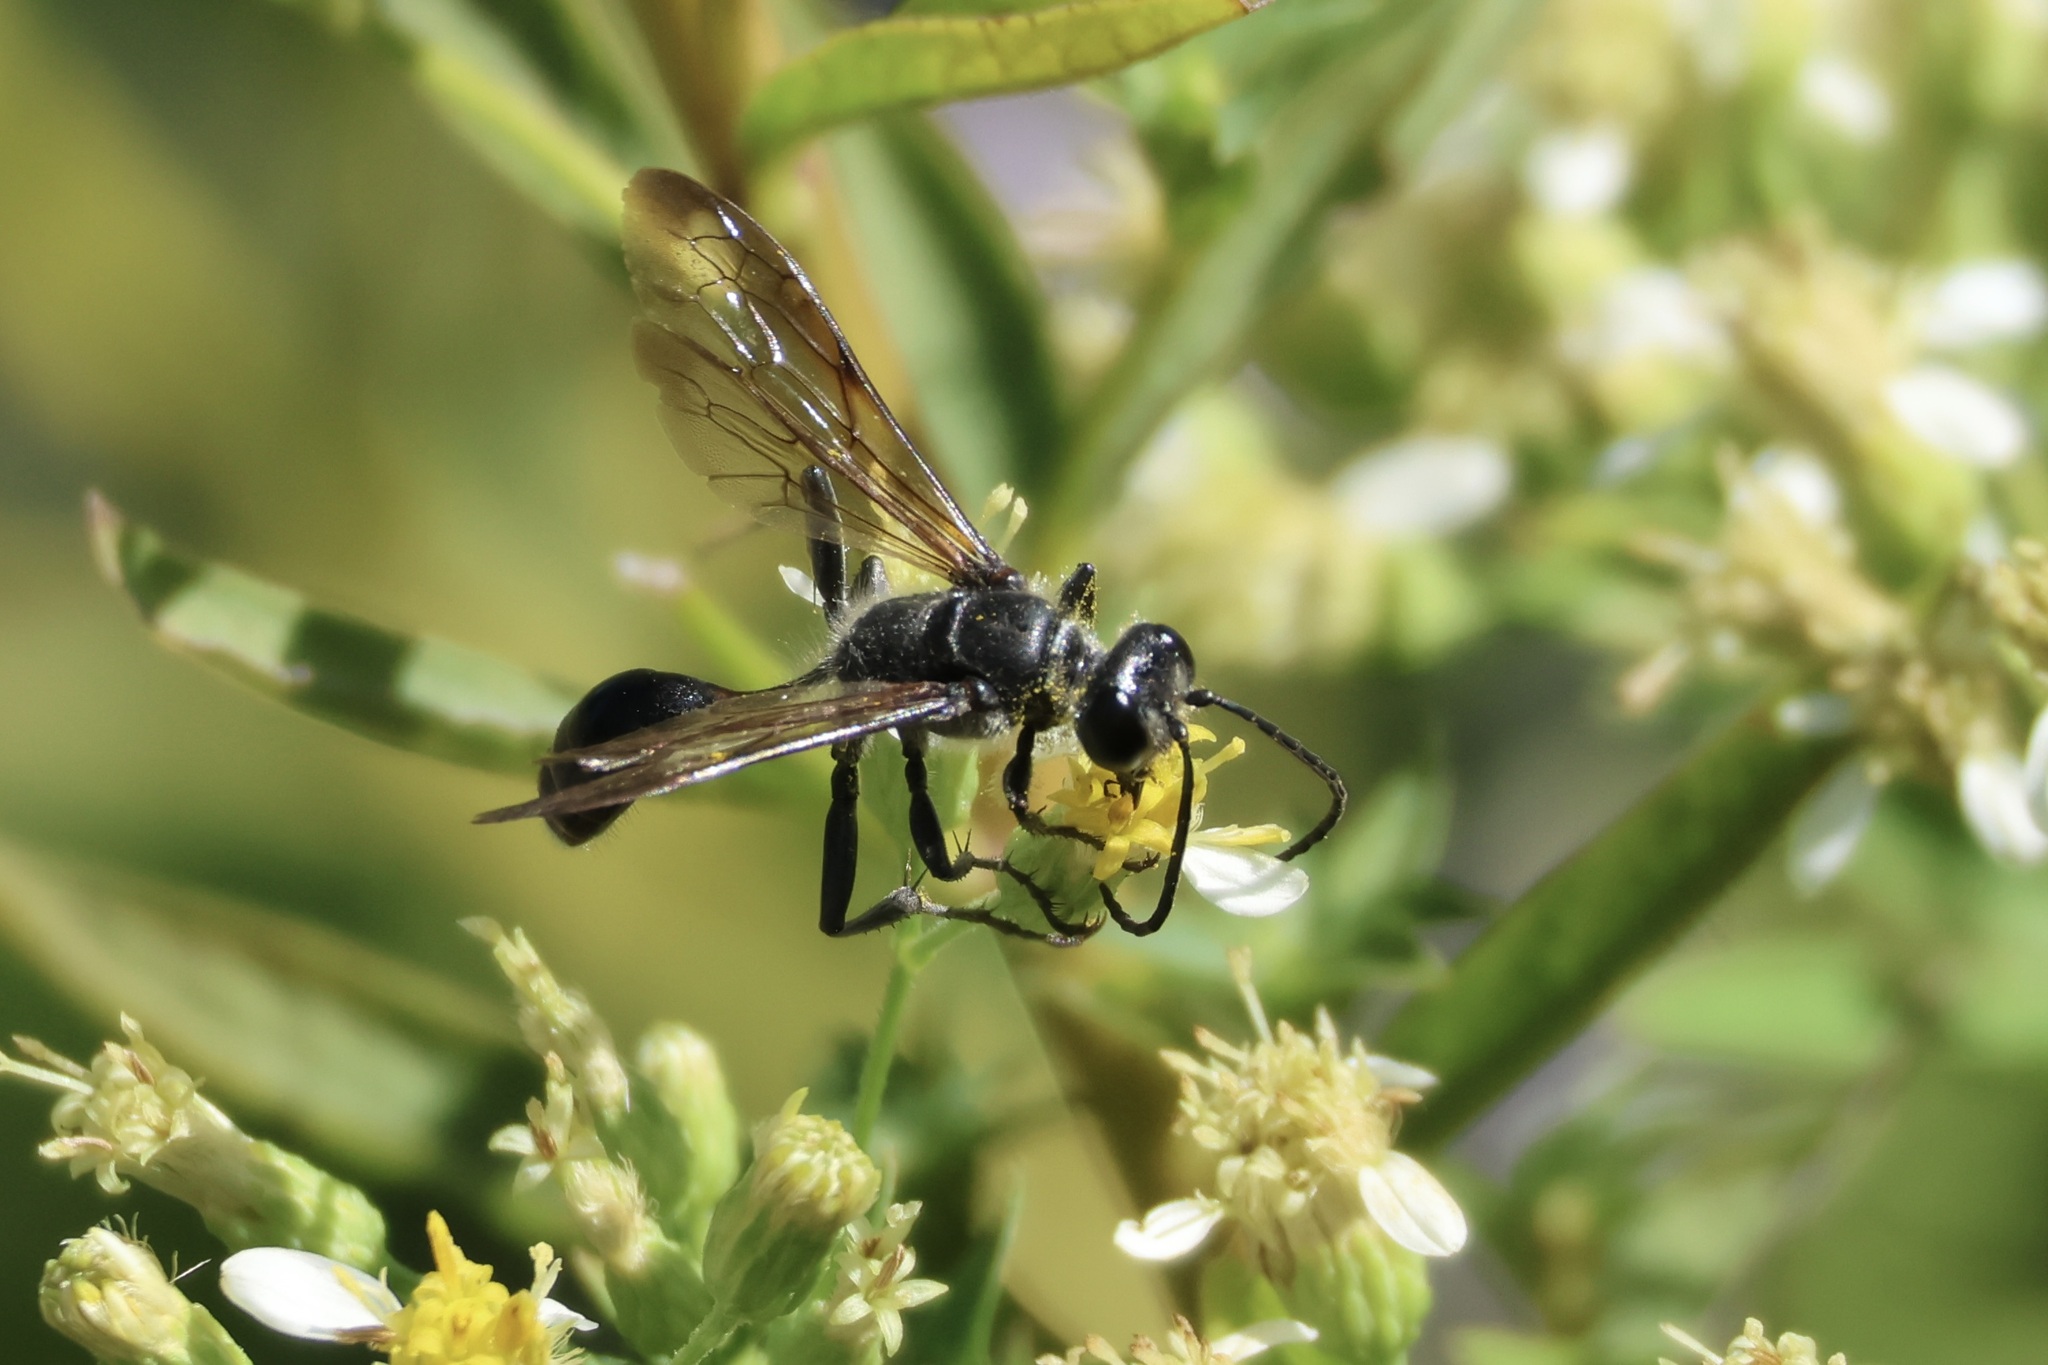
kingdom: Animalia
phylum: Arthropoda
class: Insecta
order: Hymenoptera
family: Sphecidae
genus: Isodontia
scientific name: Isodontia mexicana
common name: Mud dauber
